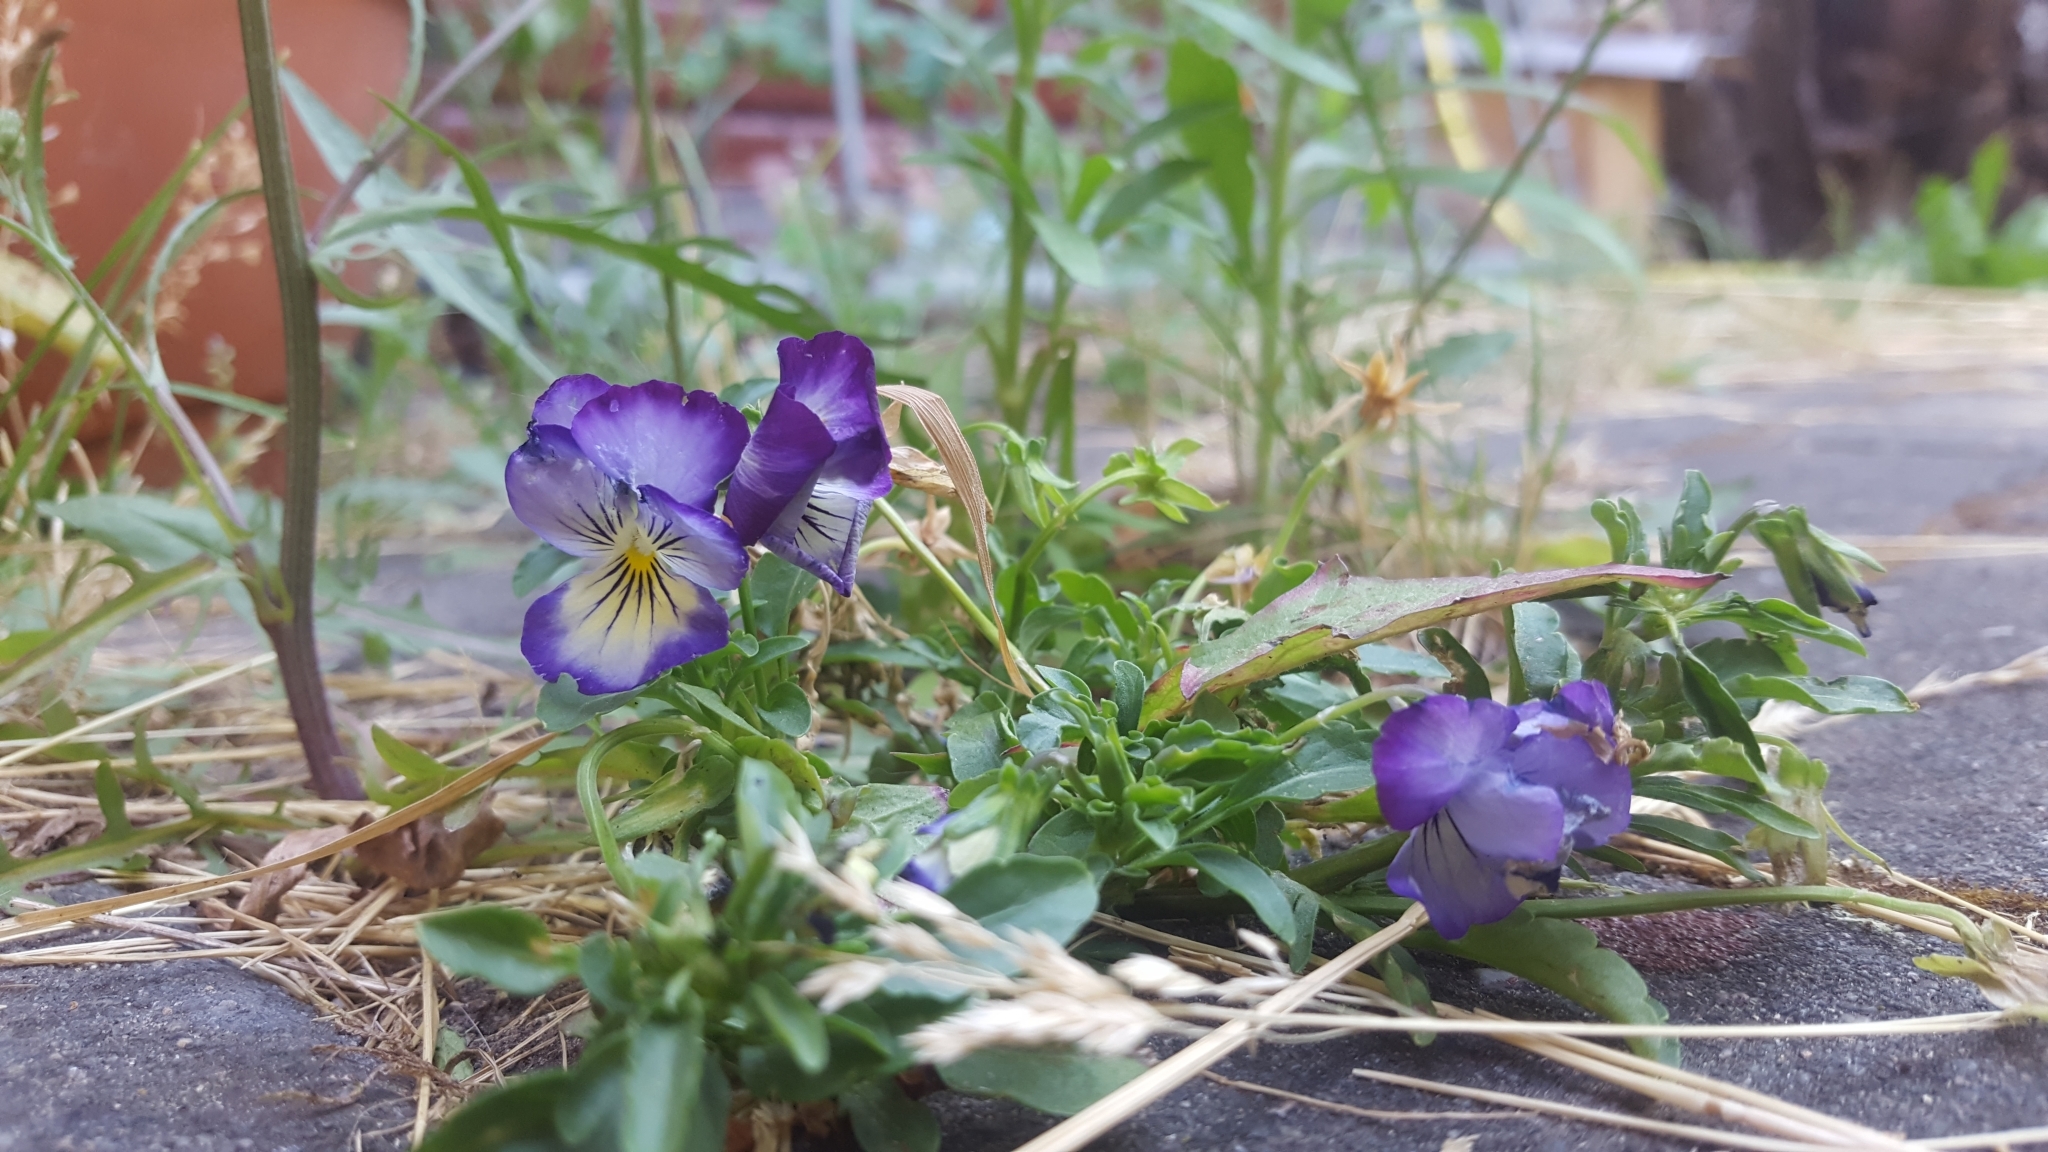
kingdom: Plantae
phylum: Tracheophyta
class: Magnoliopsida
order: Malpighiales
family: Violaceae
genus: Viola
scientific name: Viola wittrockiana
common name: Garden pansy
